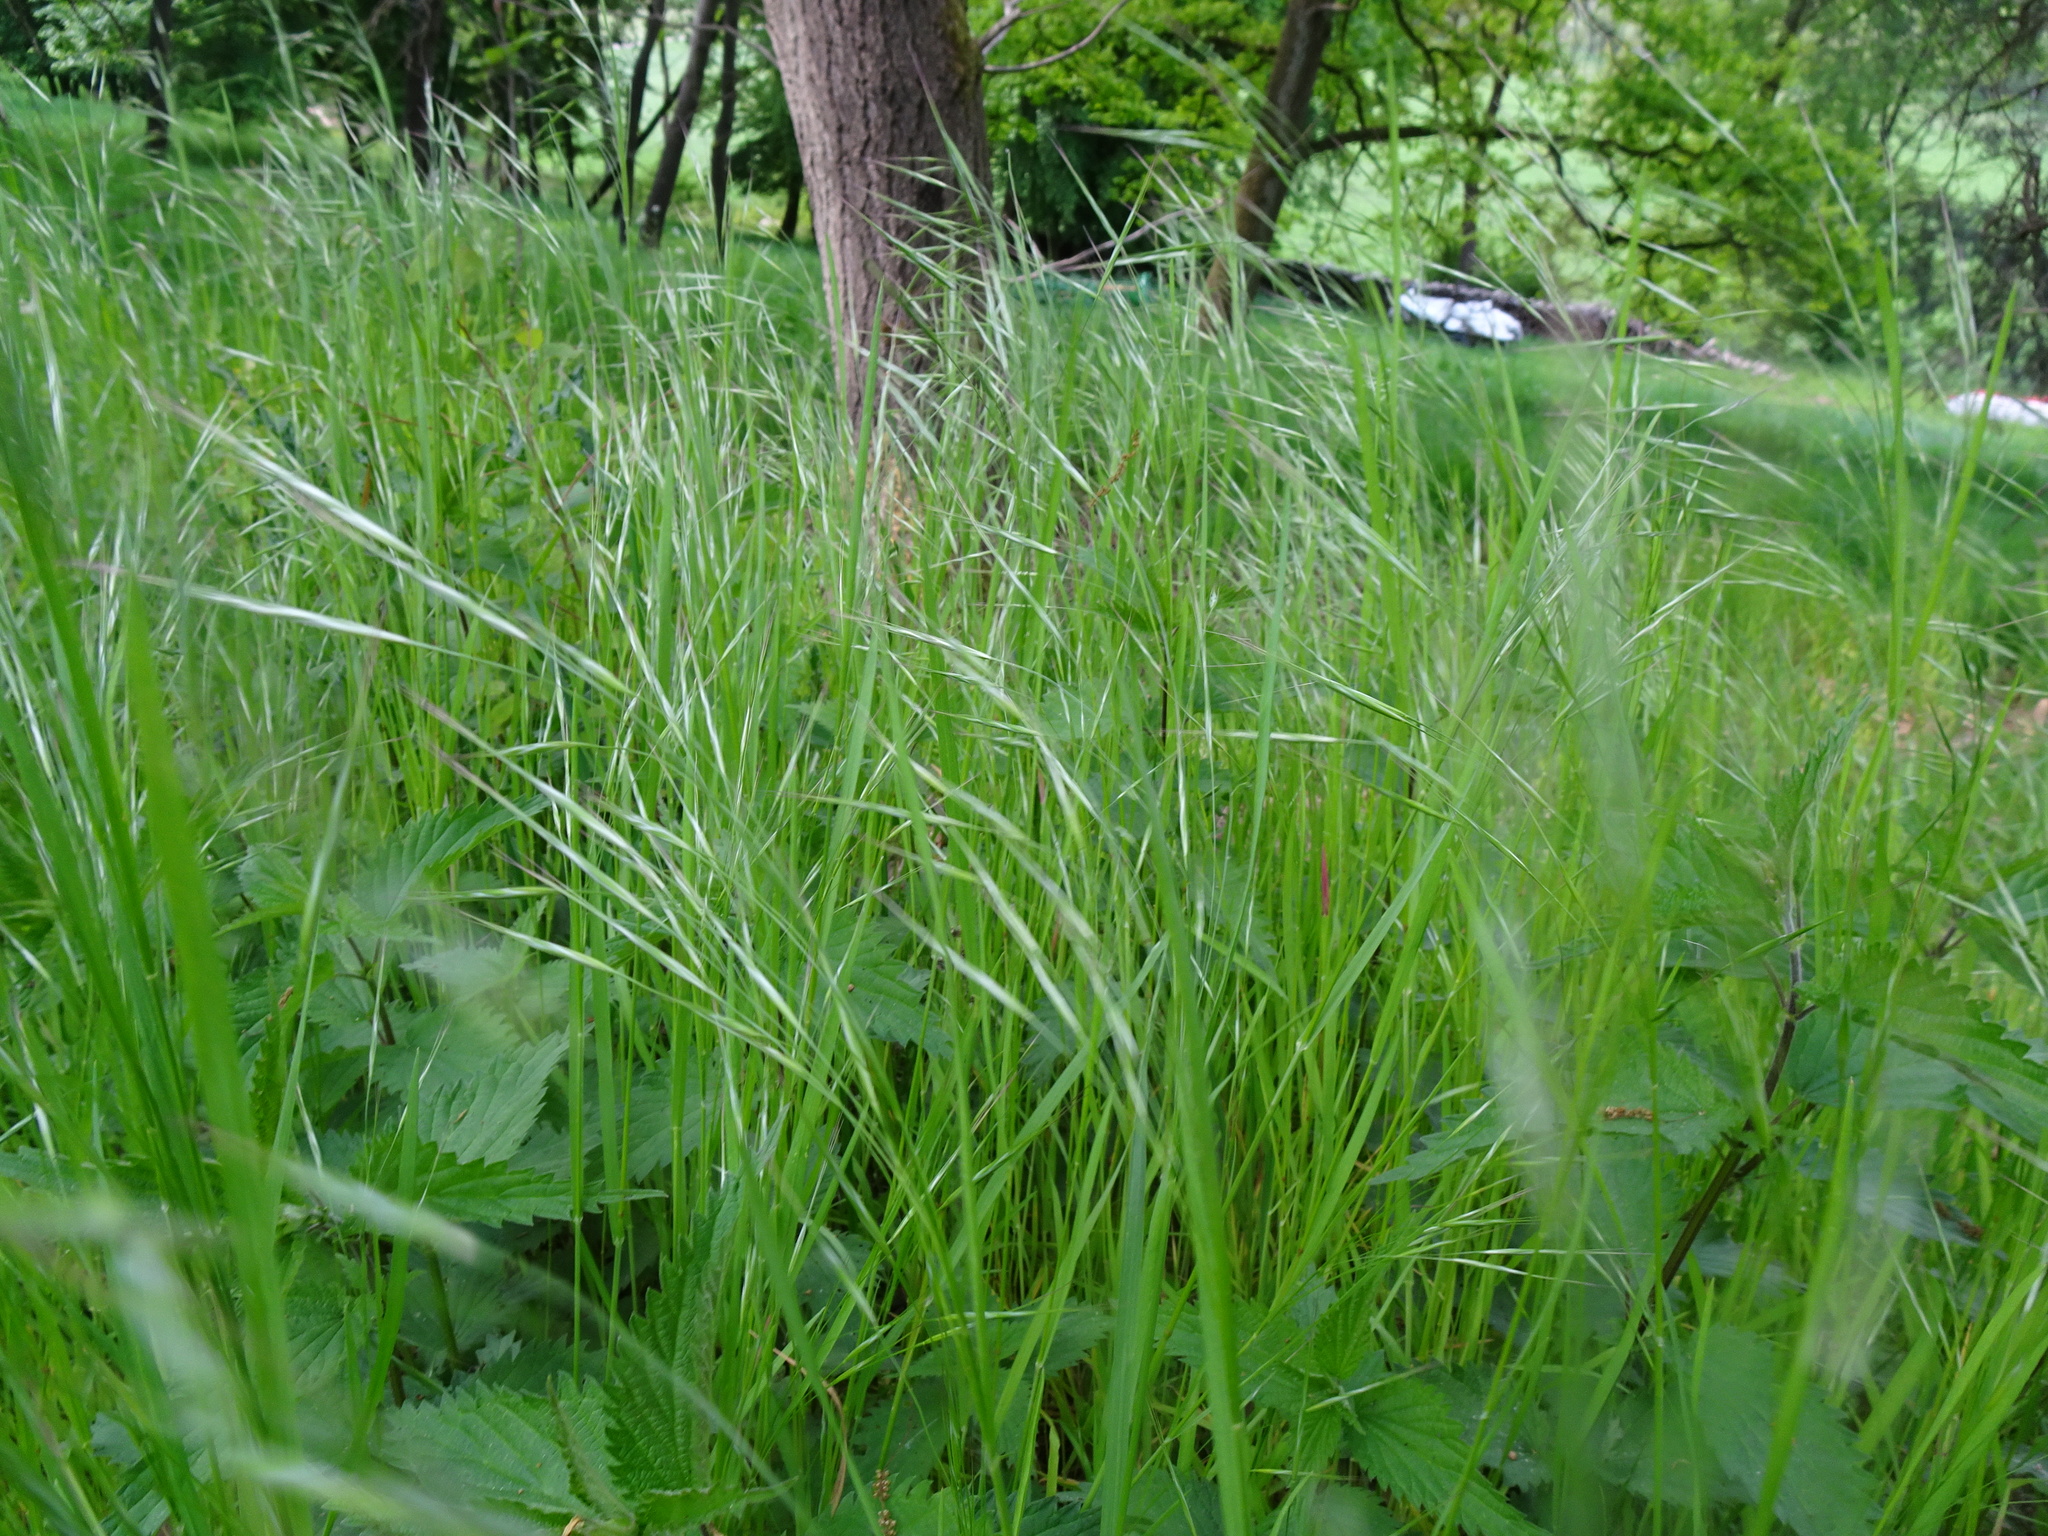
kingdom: Plantae
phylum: Tracheophyta
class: Liliopsida
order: Poales
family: Poaceae
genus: Bromus
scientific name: Bromus sterilis
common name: Poverty brome
